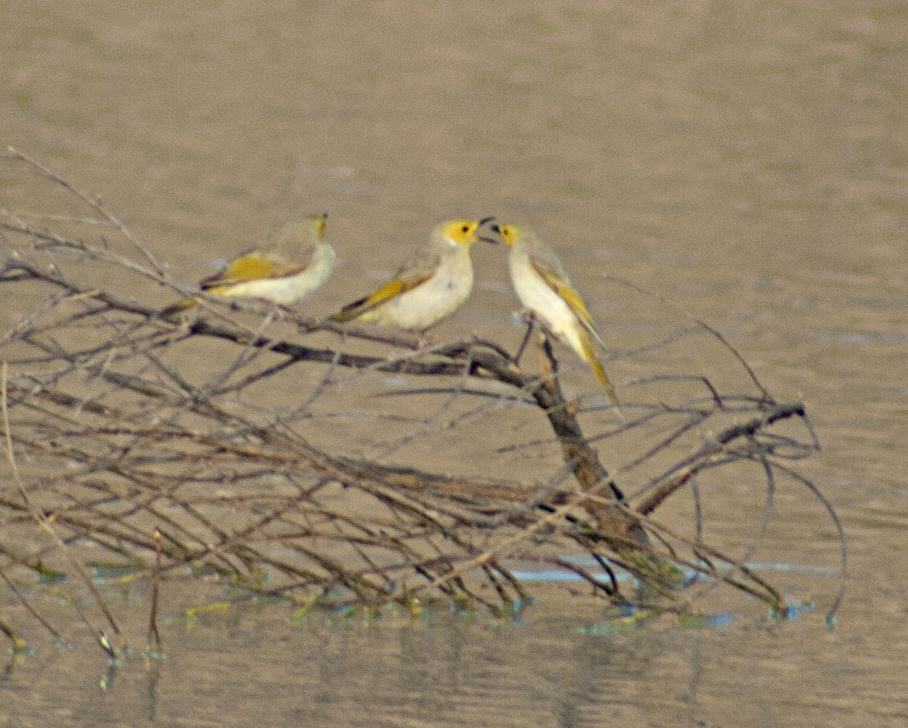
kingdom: Animalia
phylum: Chordata
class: Aves
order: Passeriformes
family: Meliphagidae
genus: Ptilotula
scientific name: Ptilotula penicillata
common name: White-plumed honeyeater
